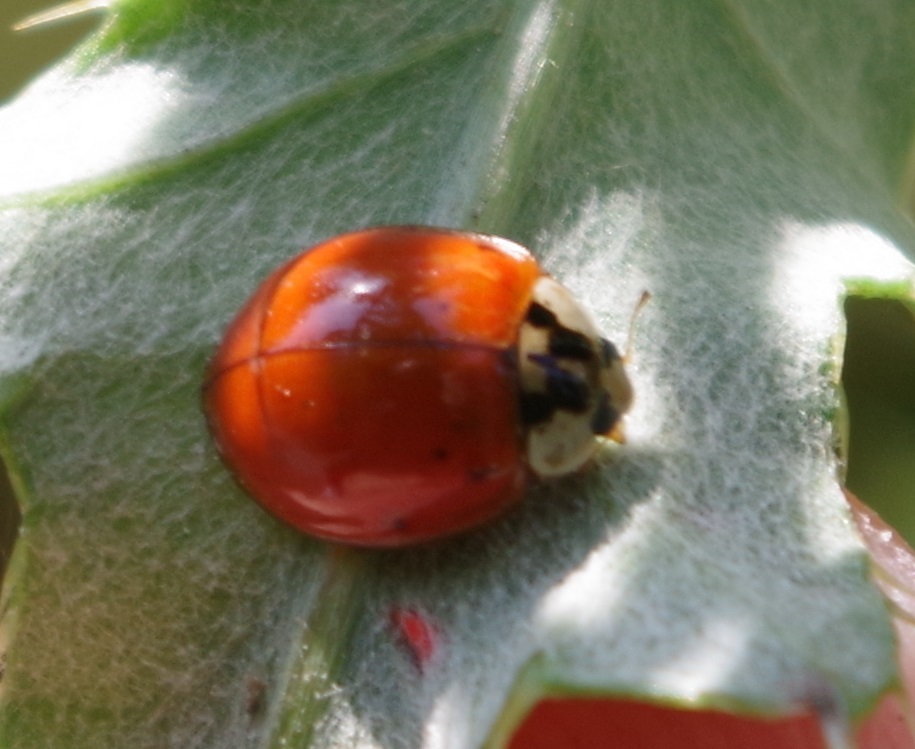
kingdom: Animalia
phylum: Arthropoda
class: Insecta
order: Coleoptera
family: Coccinellidae
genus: Harmonia
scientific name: Harmonia axyridis
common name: Harlequin ladybird
